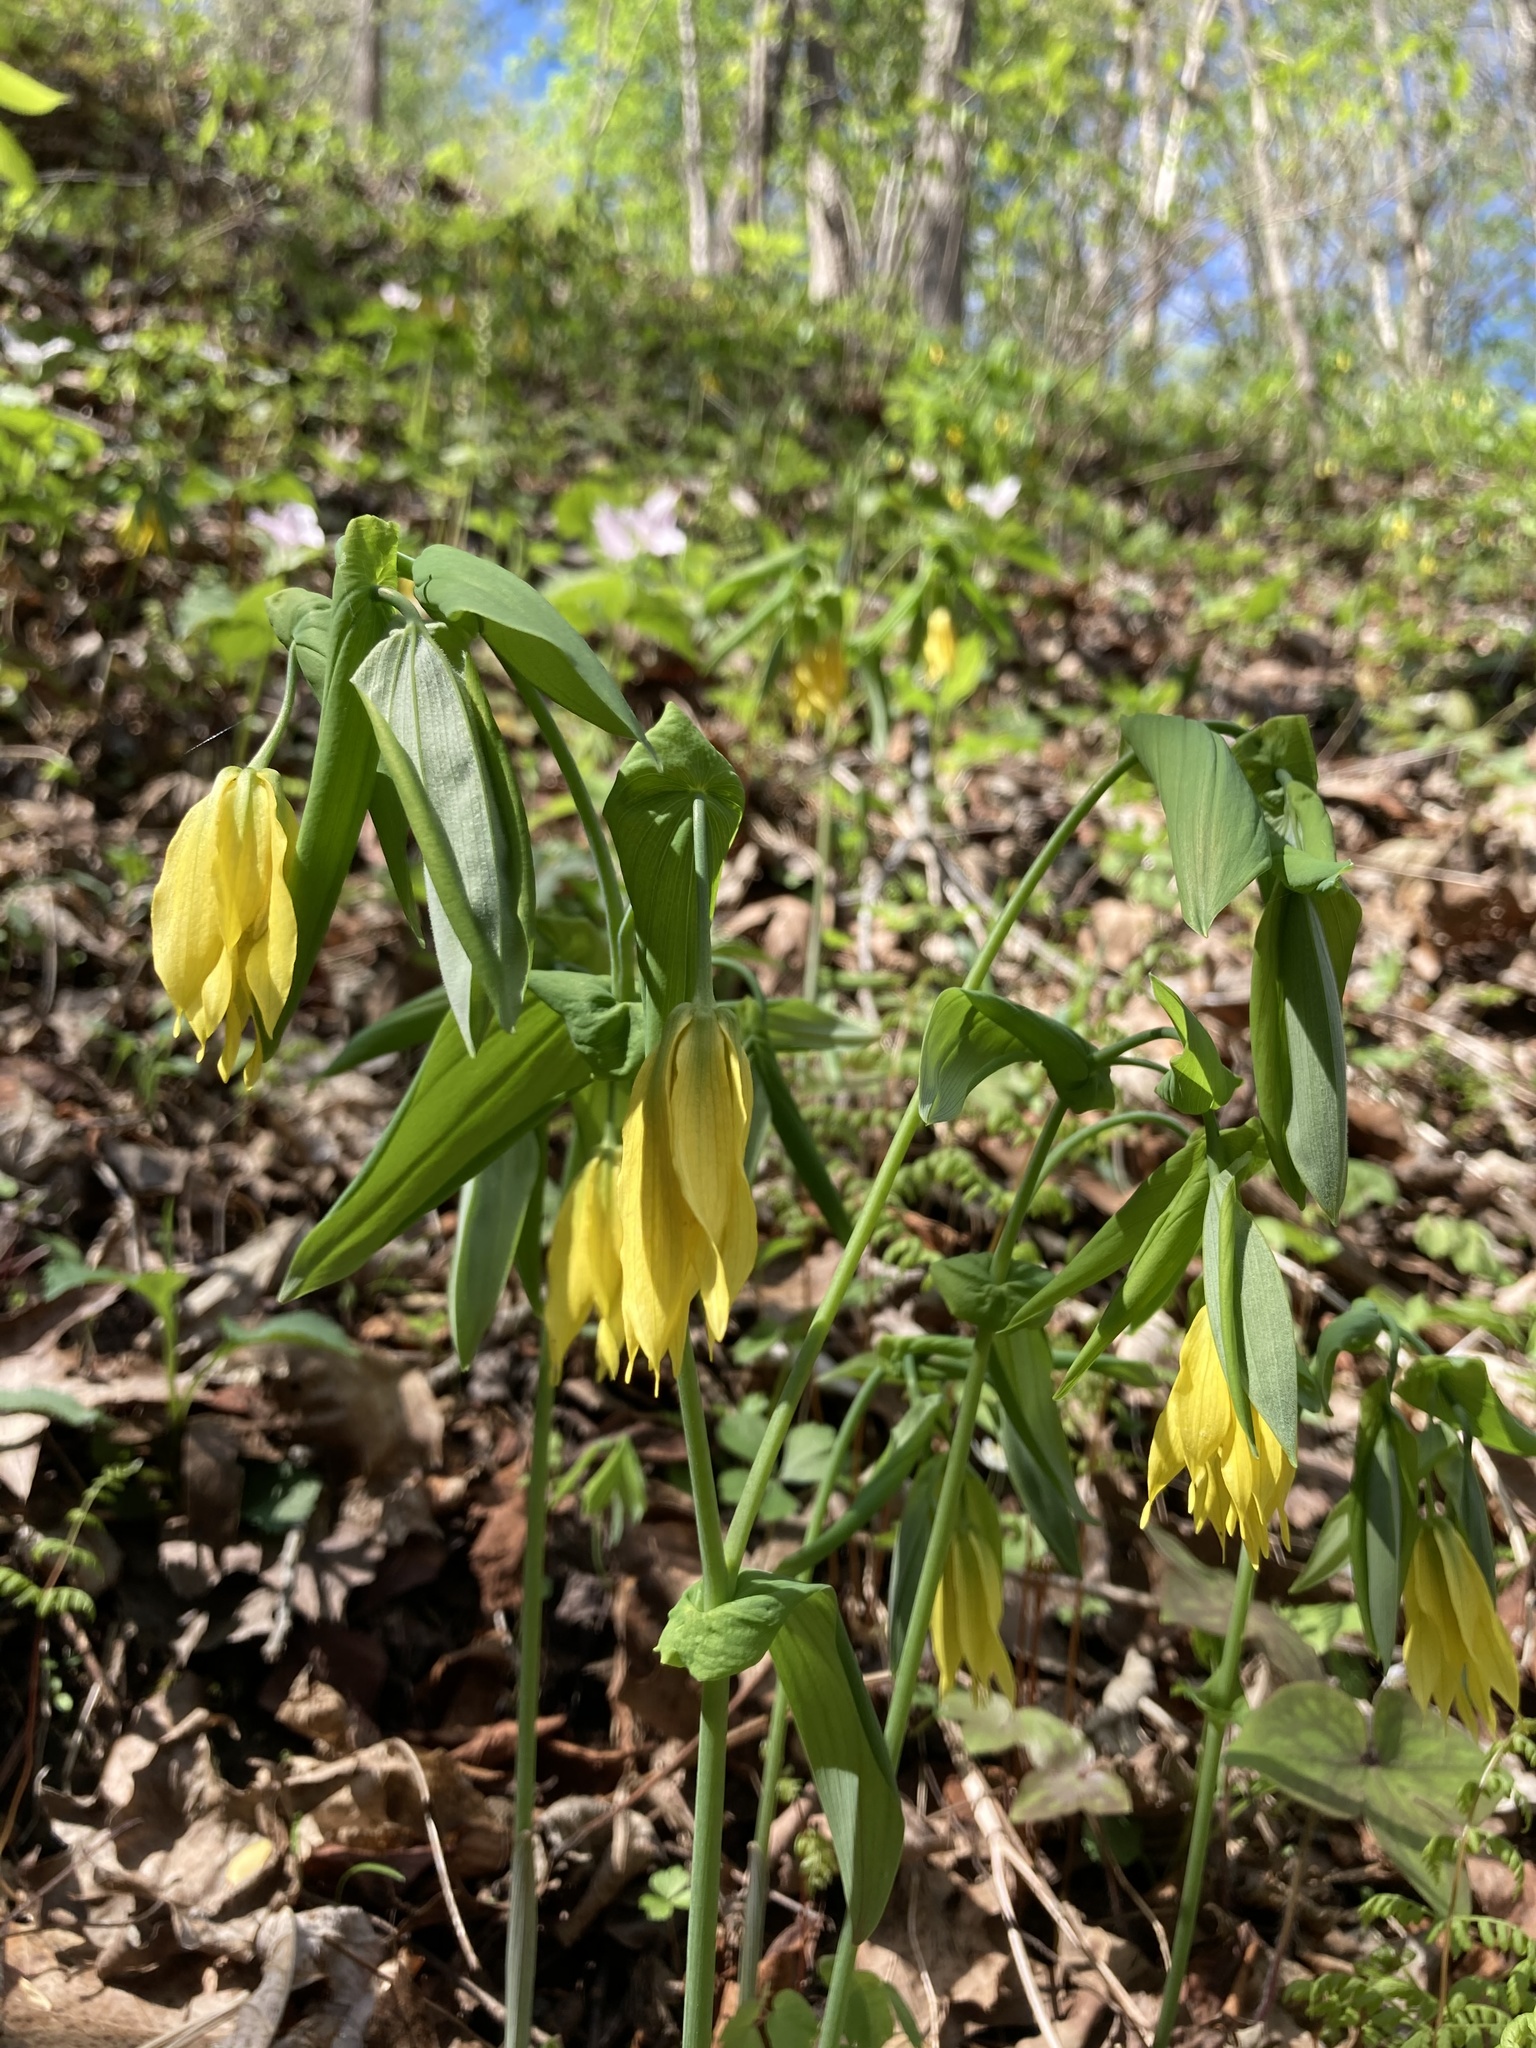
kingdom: Plantae
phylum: Tracheophyta
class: Liliopsida
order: Liliales
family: Colchicaceae
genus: Uvularia
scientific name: Uvularia grandiflora
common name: Bellwort
